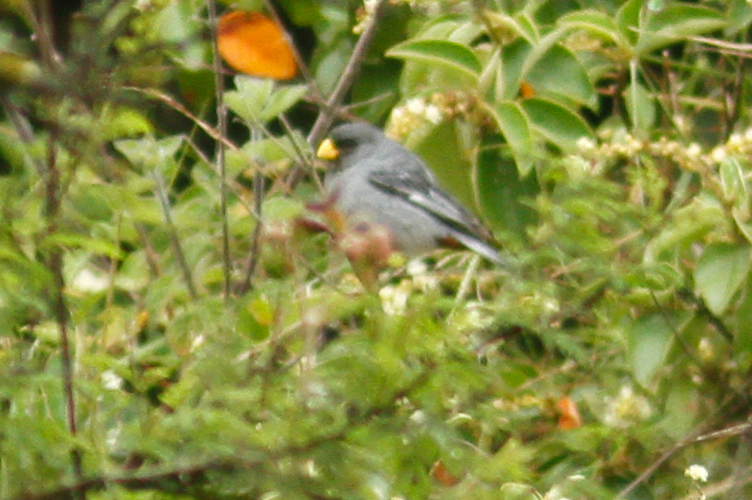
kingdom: Animalia
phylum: Chordata
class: Aves
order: Passeriformes
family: Thraupidae
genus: Catamenia
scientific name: Catamenia analis
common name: Band-tailed seedeater
